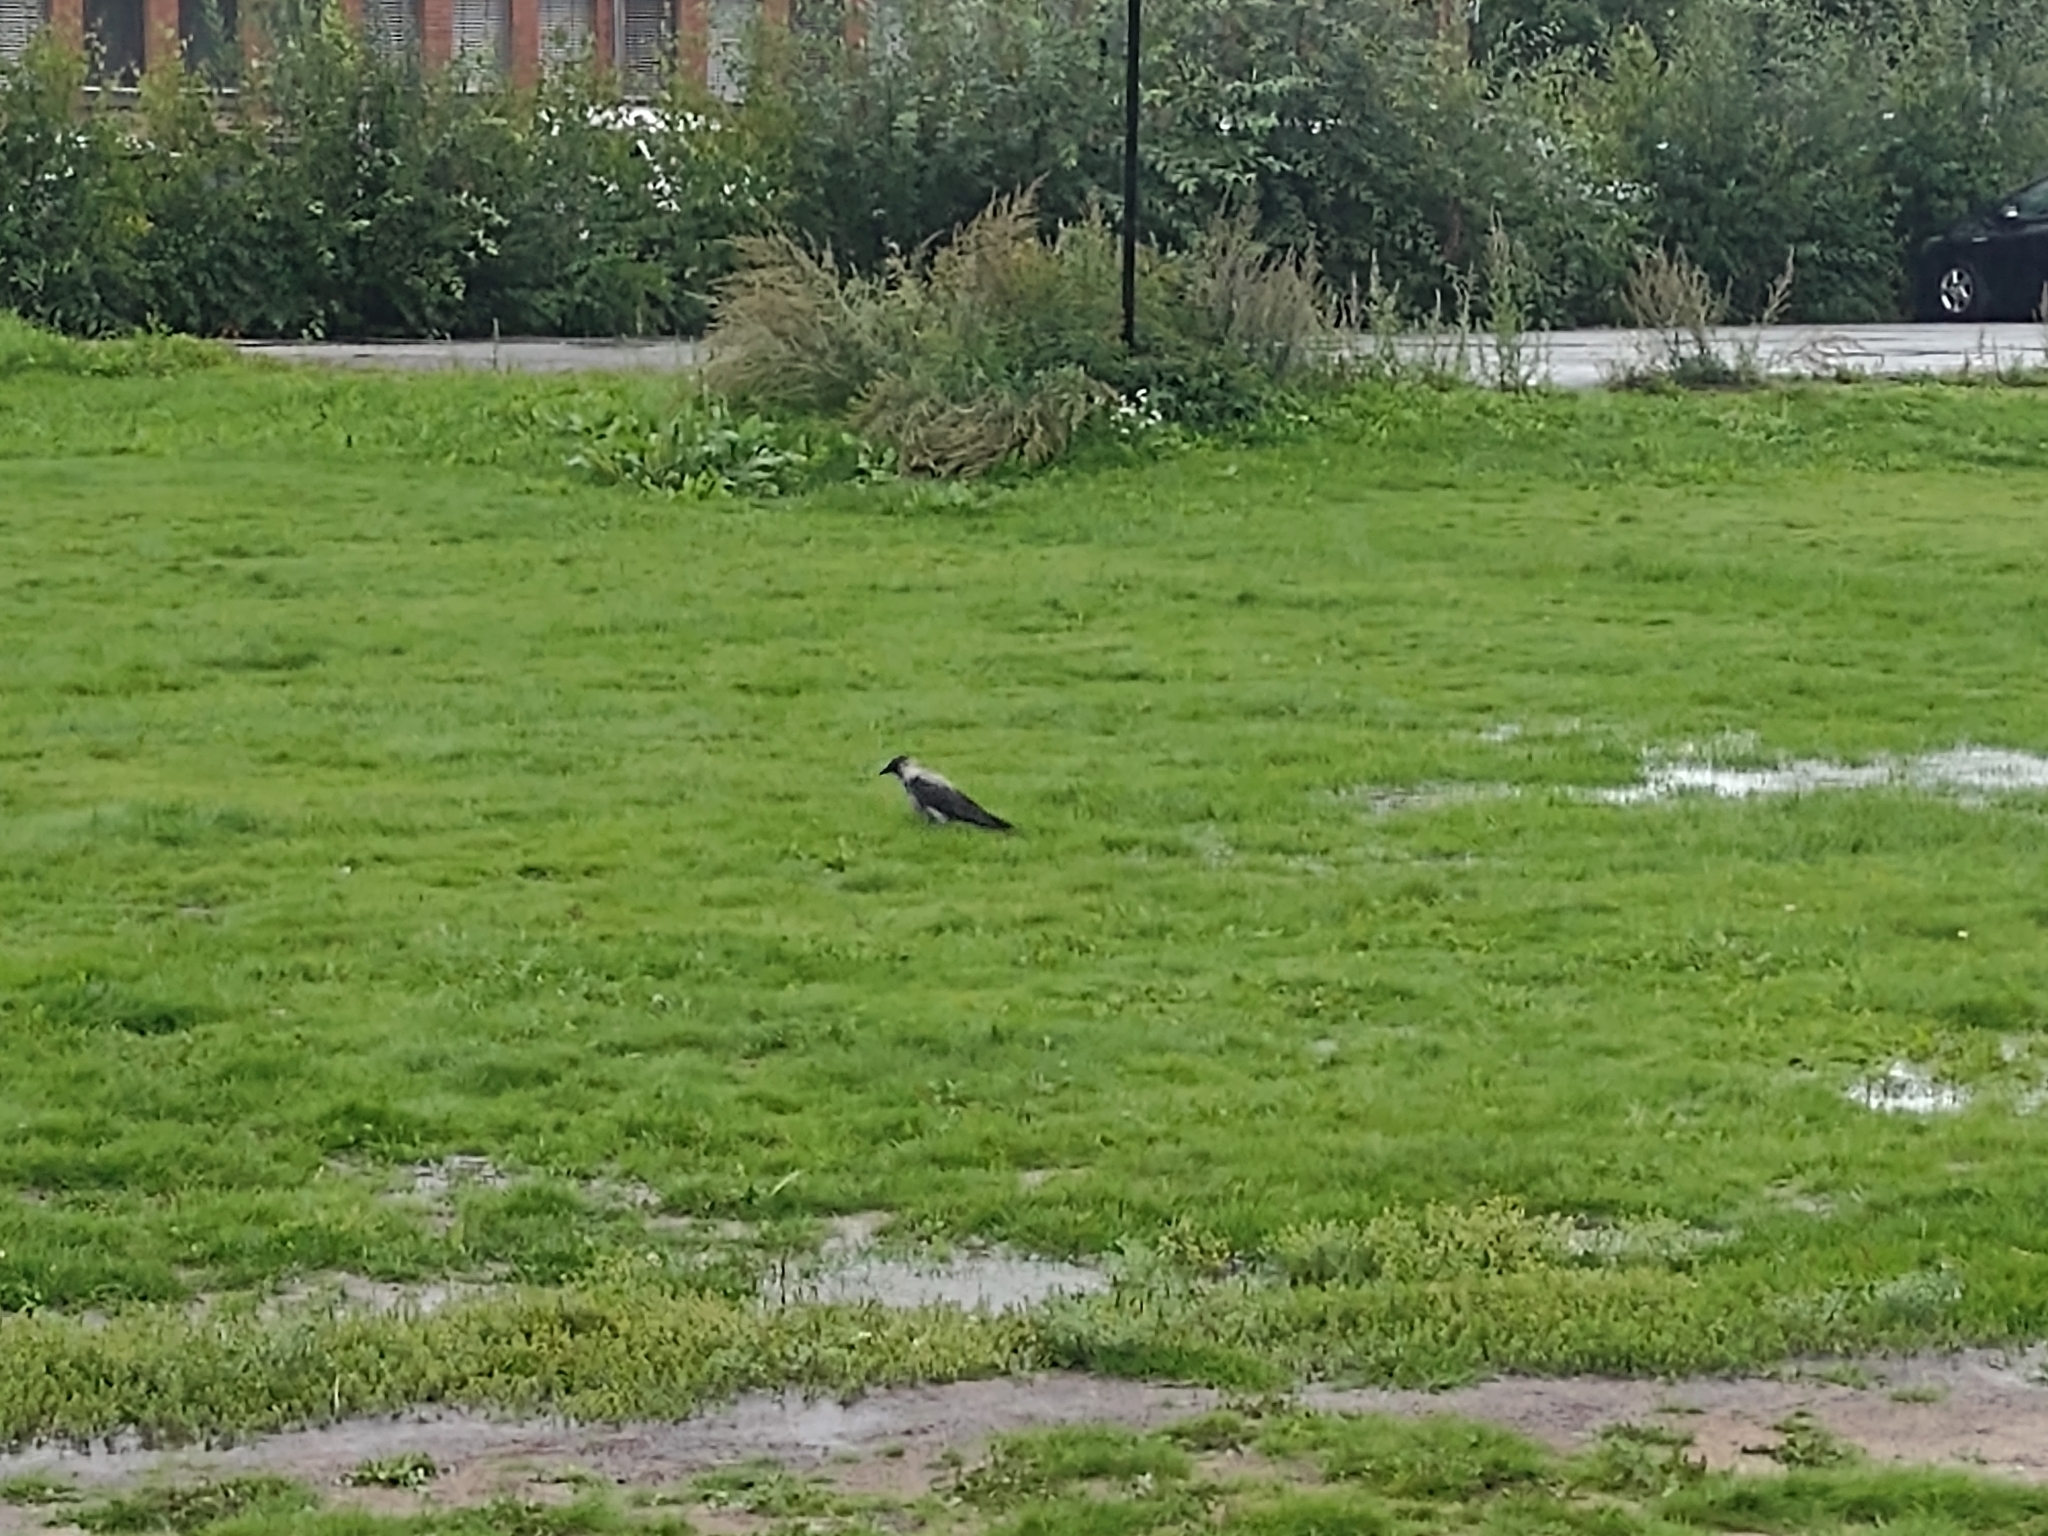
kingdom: Animalia
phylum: Chordata
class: Aves
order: Passeriformes
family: Corvidae
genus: Corvus
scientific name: Corvus cornix
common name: Hooded crow
